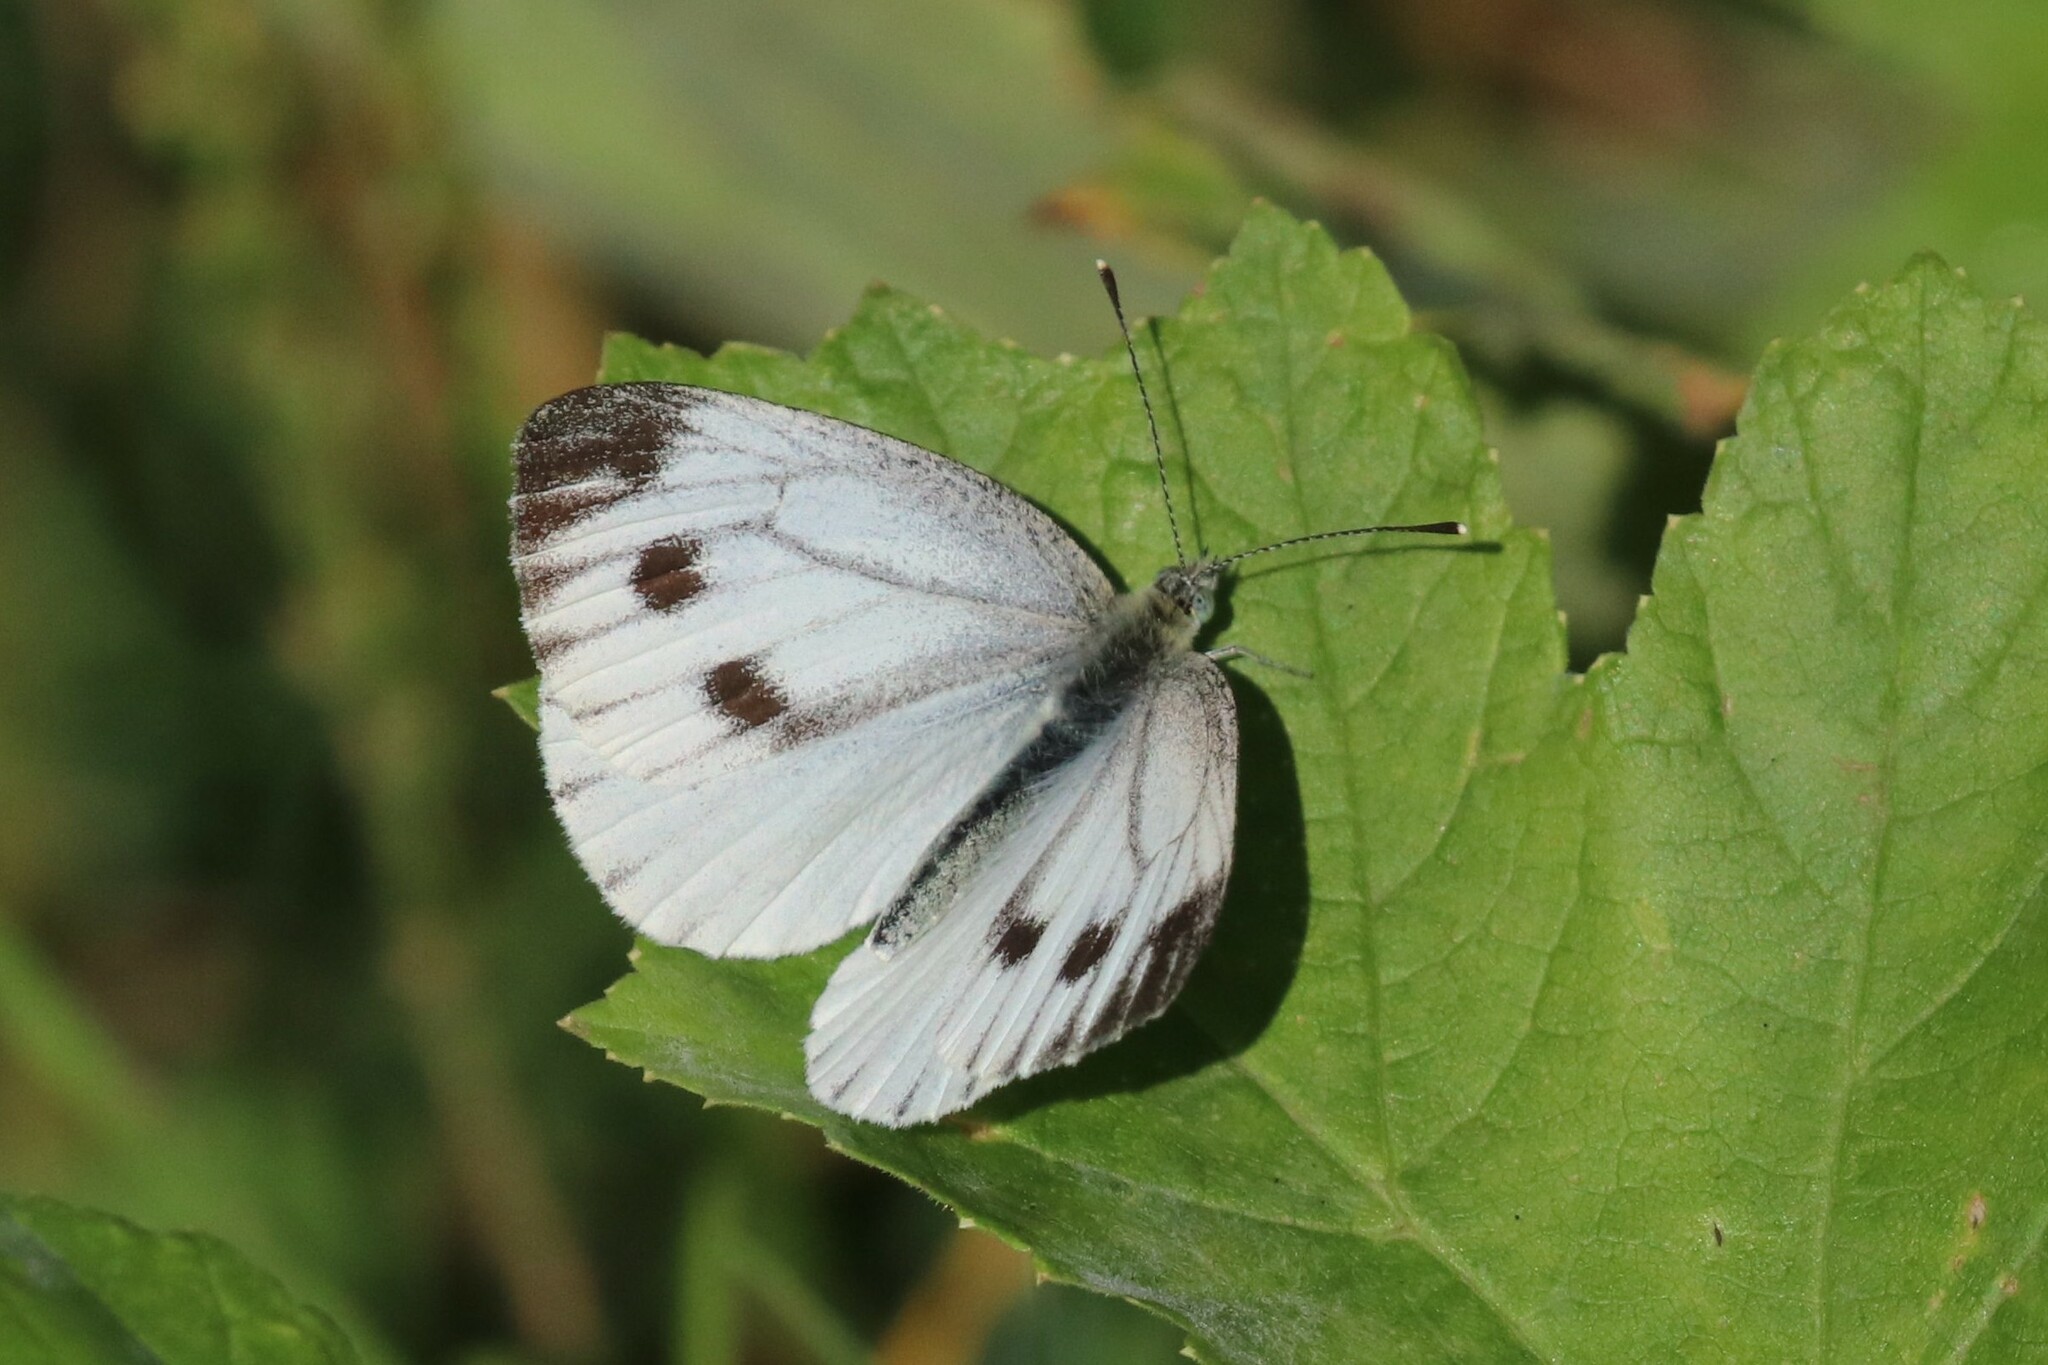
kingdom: Animalia
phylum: Arthropoda
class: Insecta
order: Lepidoptera
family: Pieridae
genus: Pieris
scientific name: Pieris napi
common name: Green-veined white
